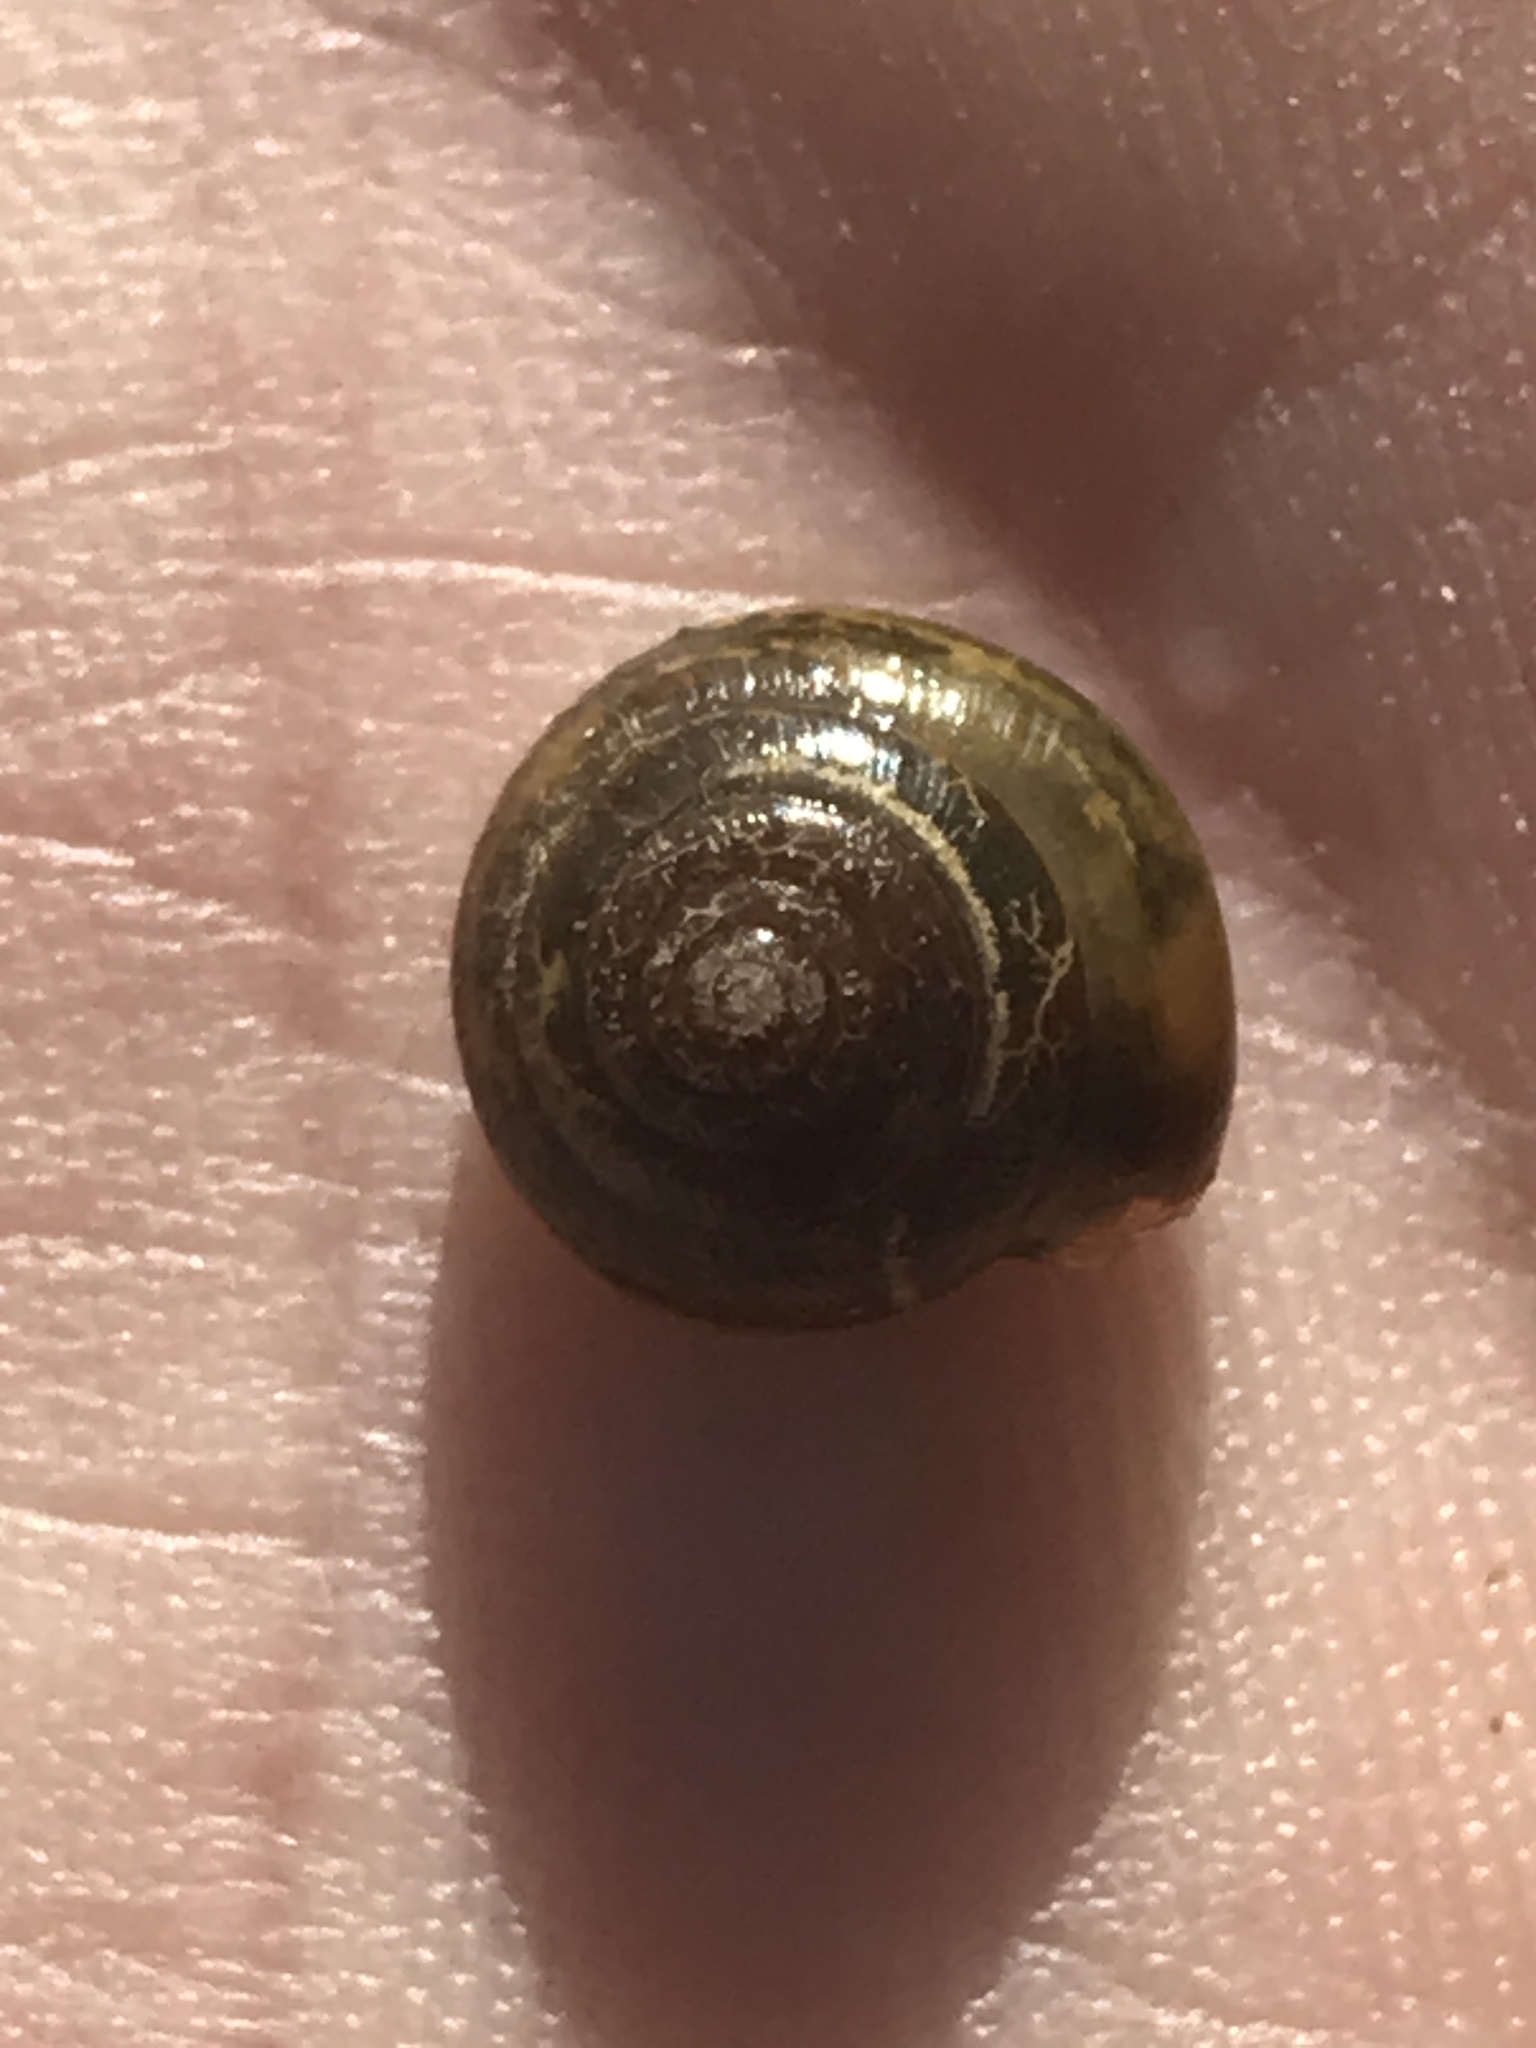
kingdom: Animalia
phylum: Mollusca
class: Gastropoda
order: Stylommatophora
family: Oxychilidae
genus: Oxychilus
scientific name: Oxychilus draparnaudi
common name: Draparnaud's glass snail
